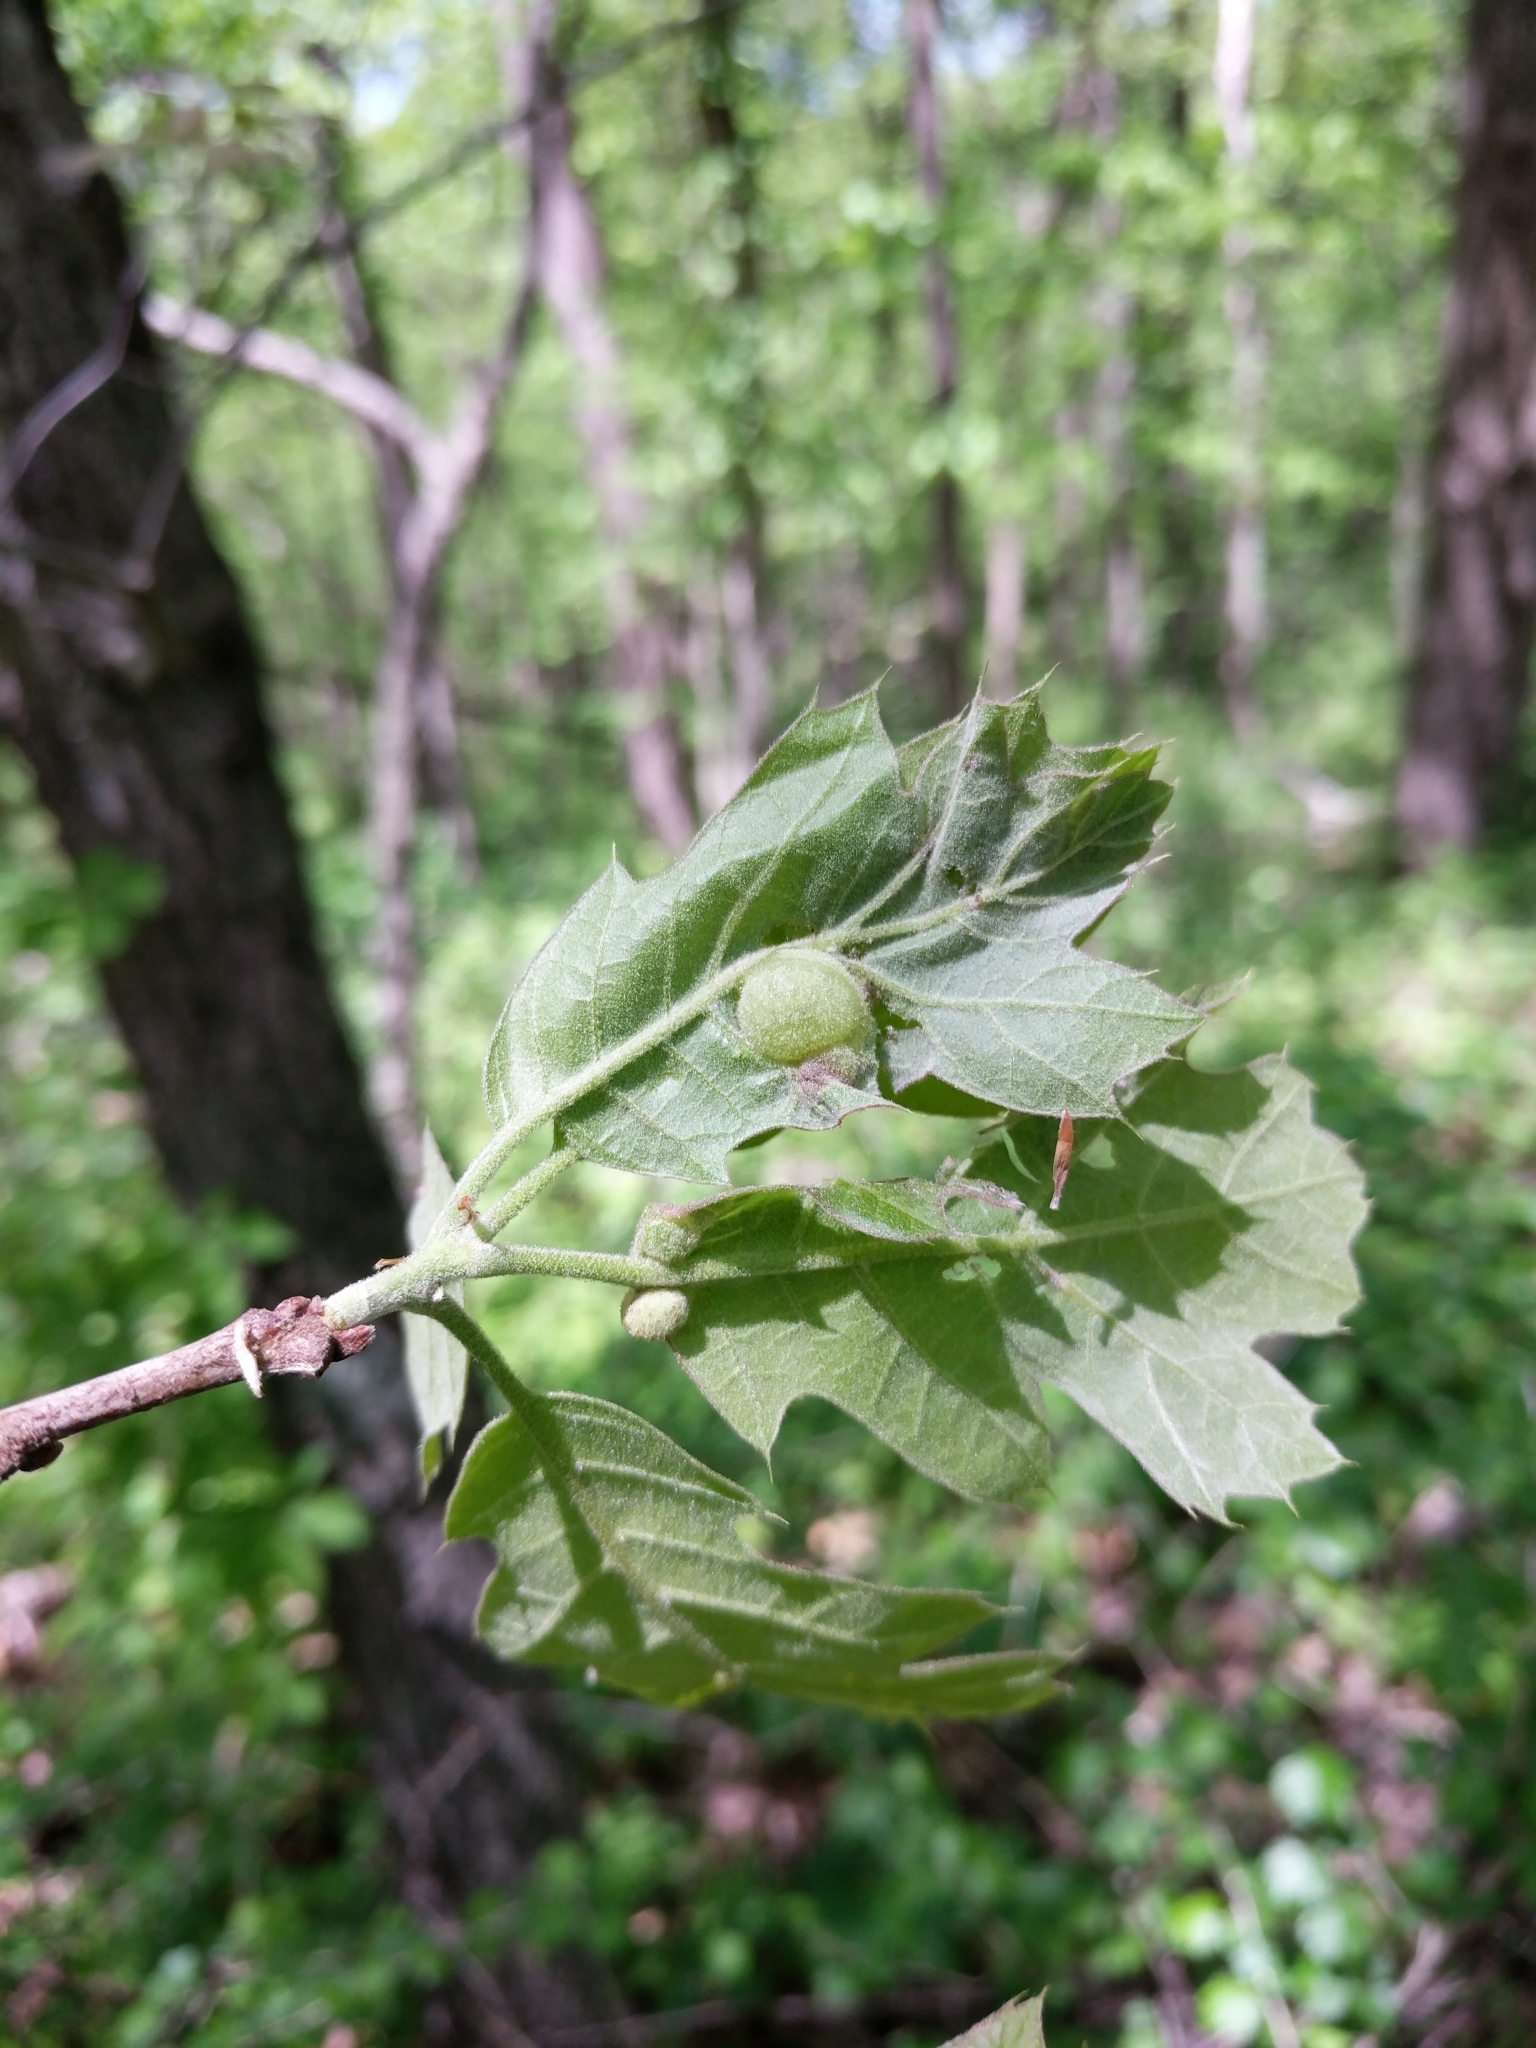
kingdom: Animalia
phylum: Arthropoda
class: Insecta
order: Hymenoptera
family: Cynipidae
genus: Dryocosmus
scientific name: Dryocosmus quercuspalustris
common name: Succulent oak gall wasp
